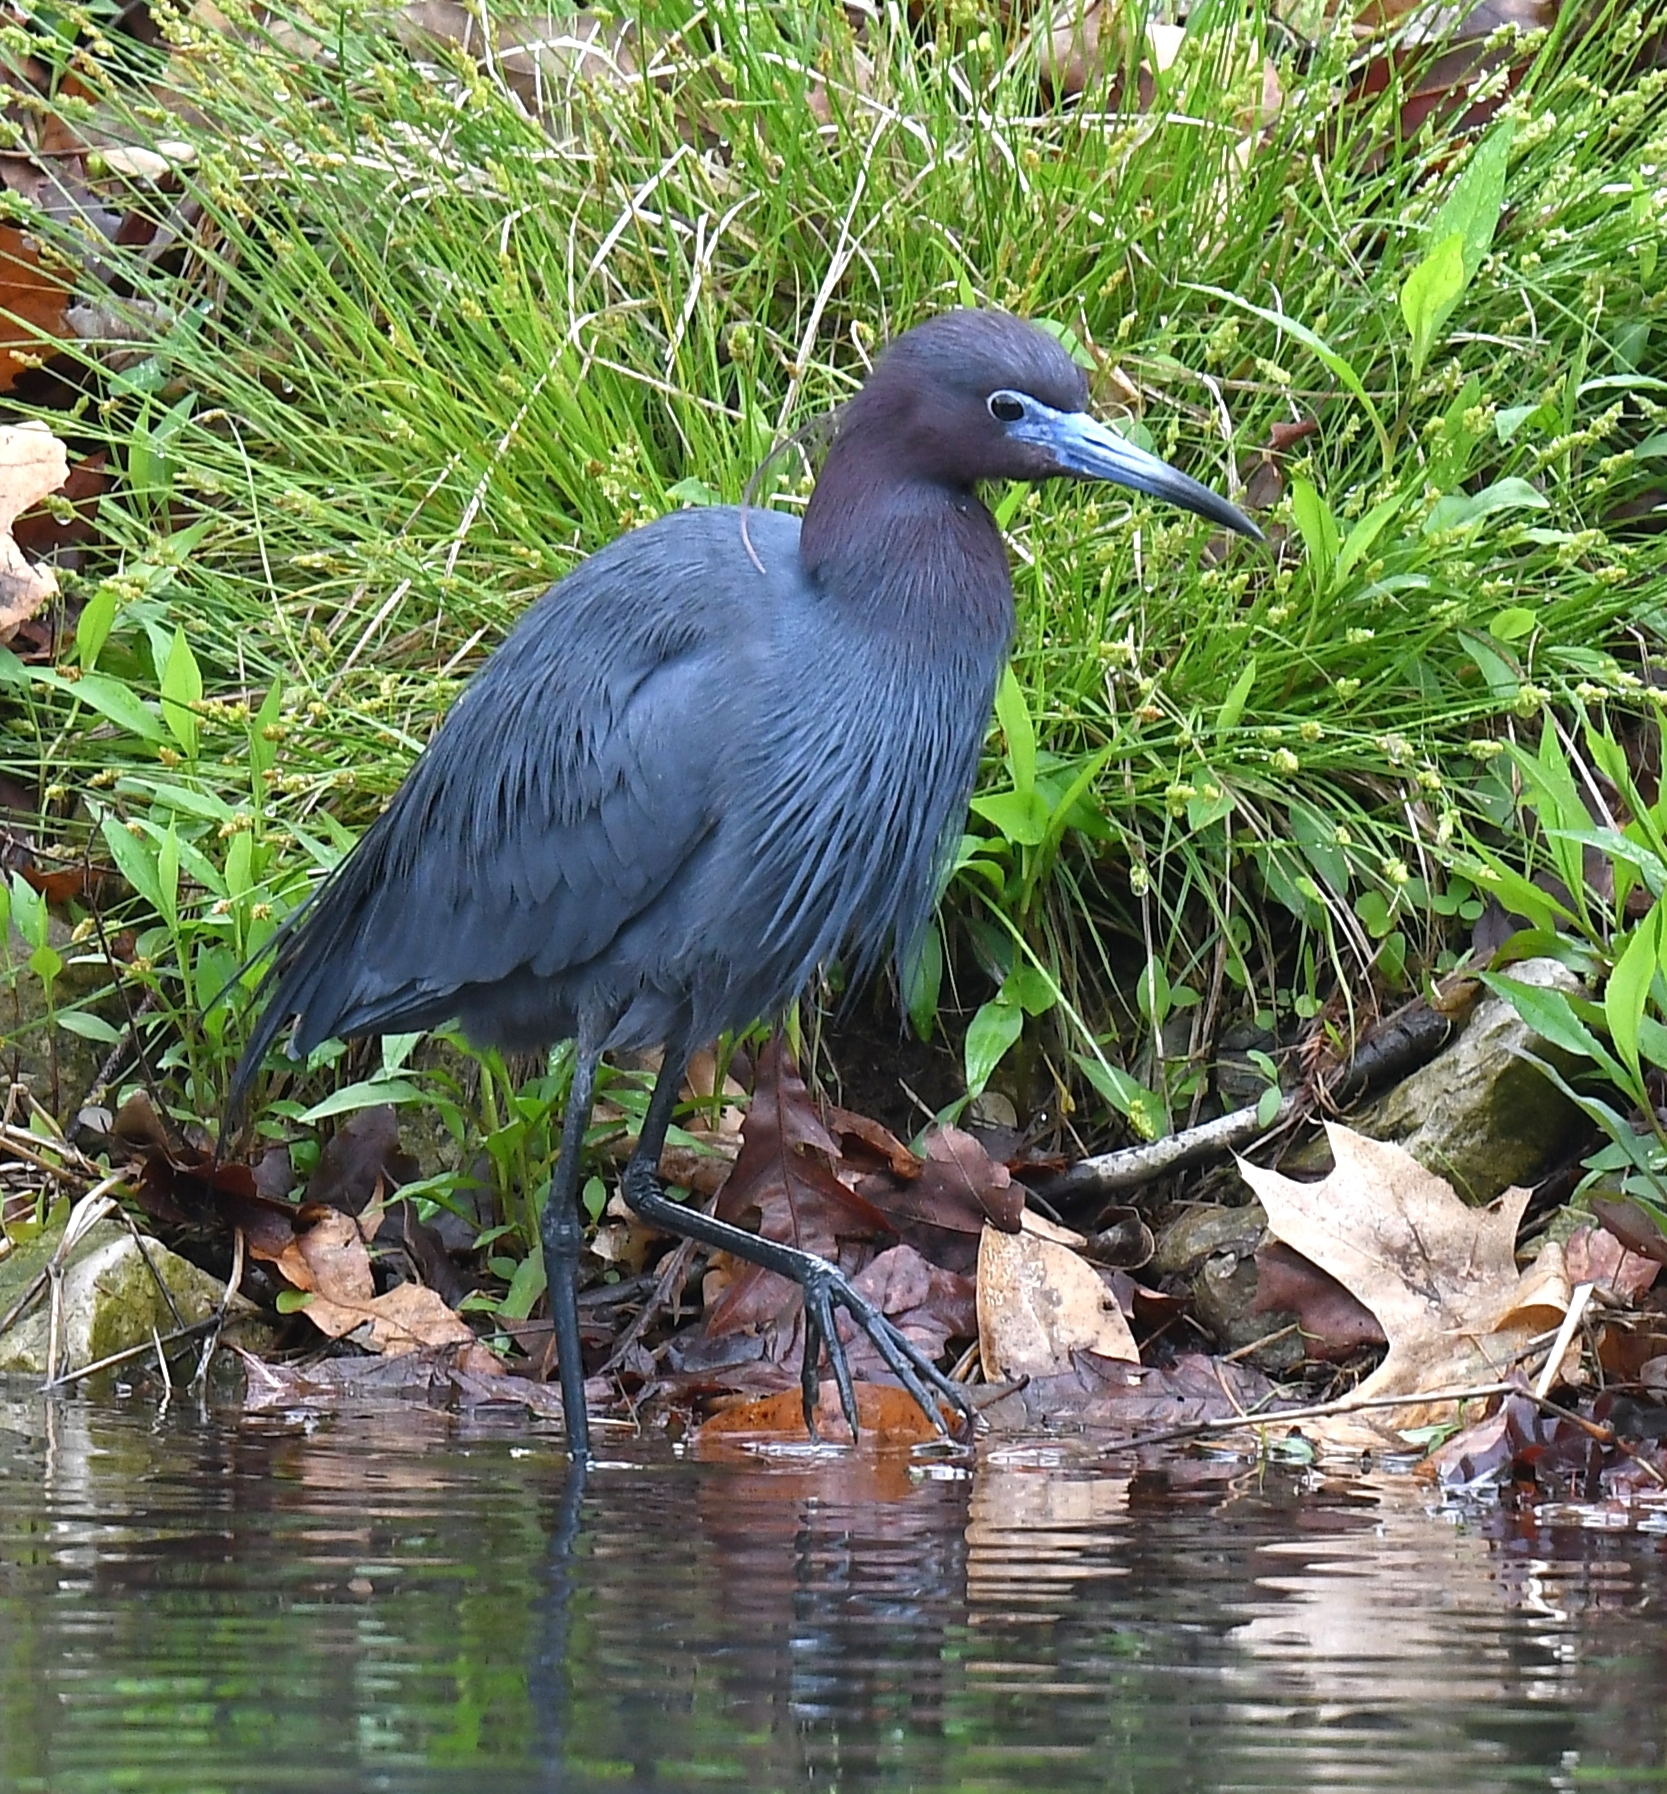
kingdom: Animalia
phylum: Chordata
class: Aves
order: Pelecaniformes
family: Ardeidae
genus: Egretta
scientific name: Egretta caerulea
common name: Little blue heron
